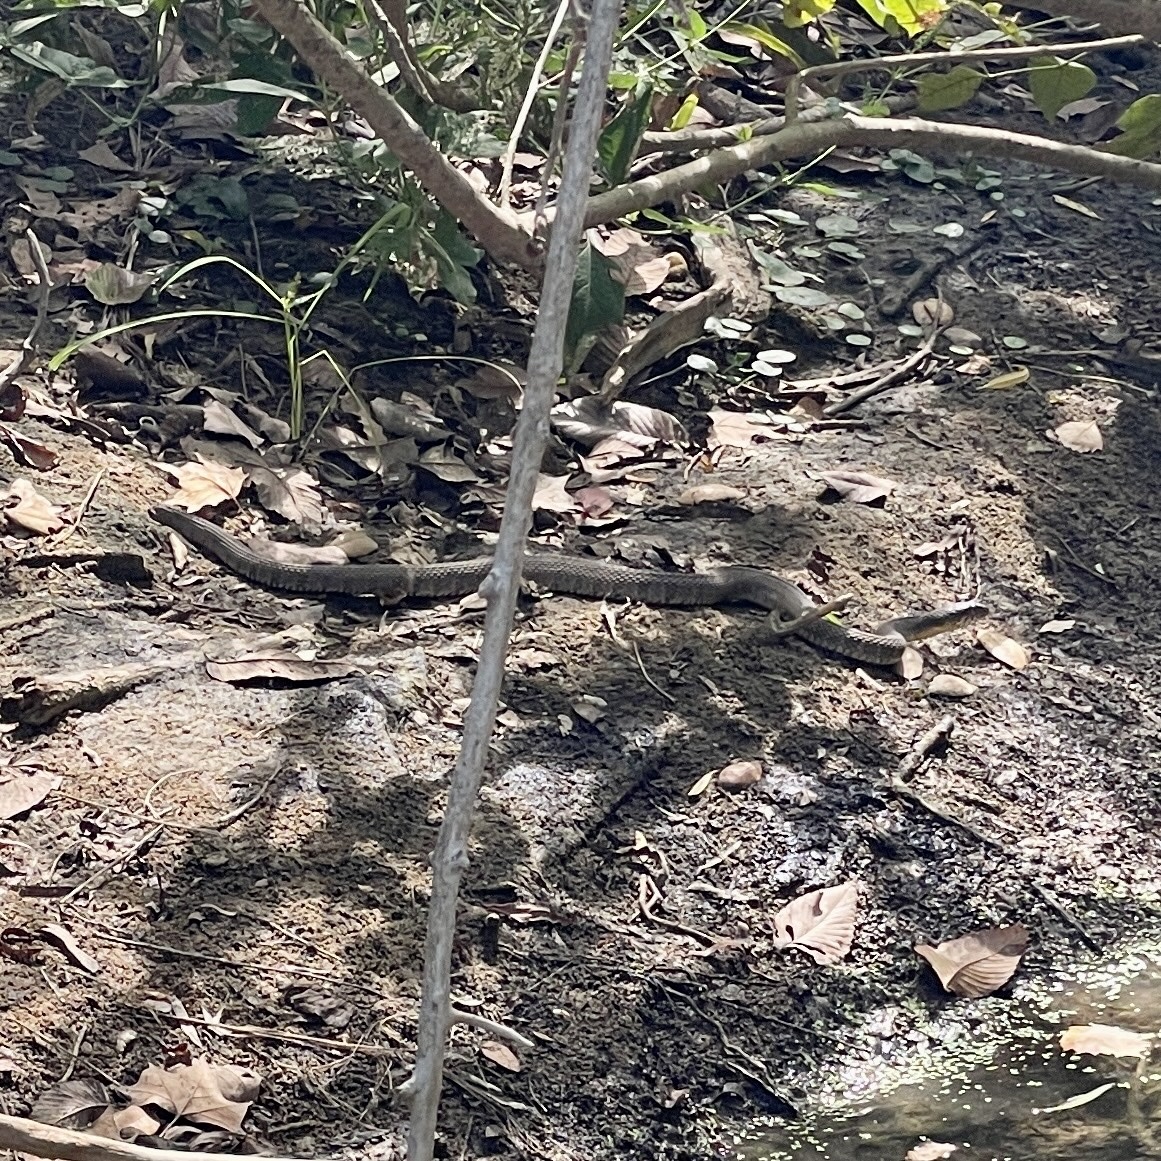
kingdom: Animalia
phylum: Chordata
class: Squamata
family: Colubridae
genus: Nerodia
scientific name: Nerodia erythrogaster
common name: Plainbelly water snake
